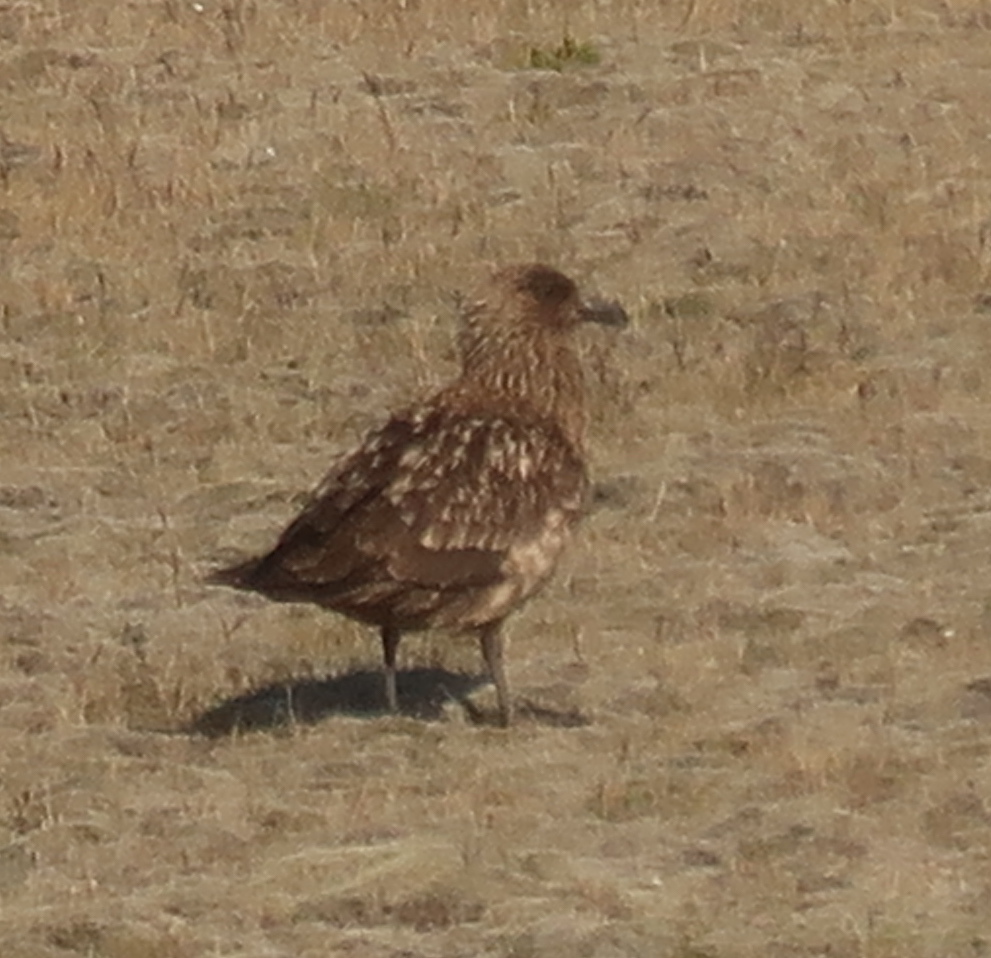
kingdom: Animalia
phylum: Chordata
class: Aves
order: Charadriiformes
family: Stercorariidae
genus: Stercorarius
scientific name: Stercorarius skua
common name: Great skua
